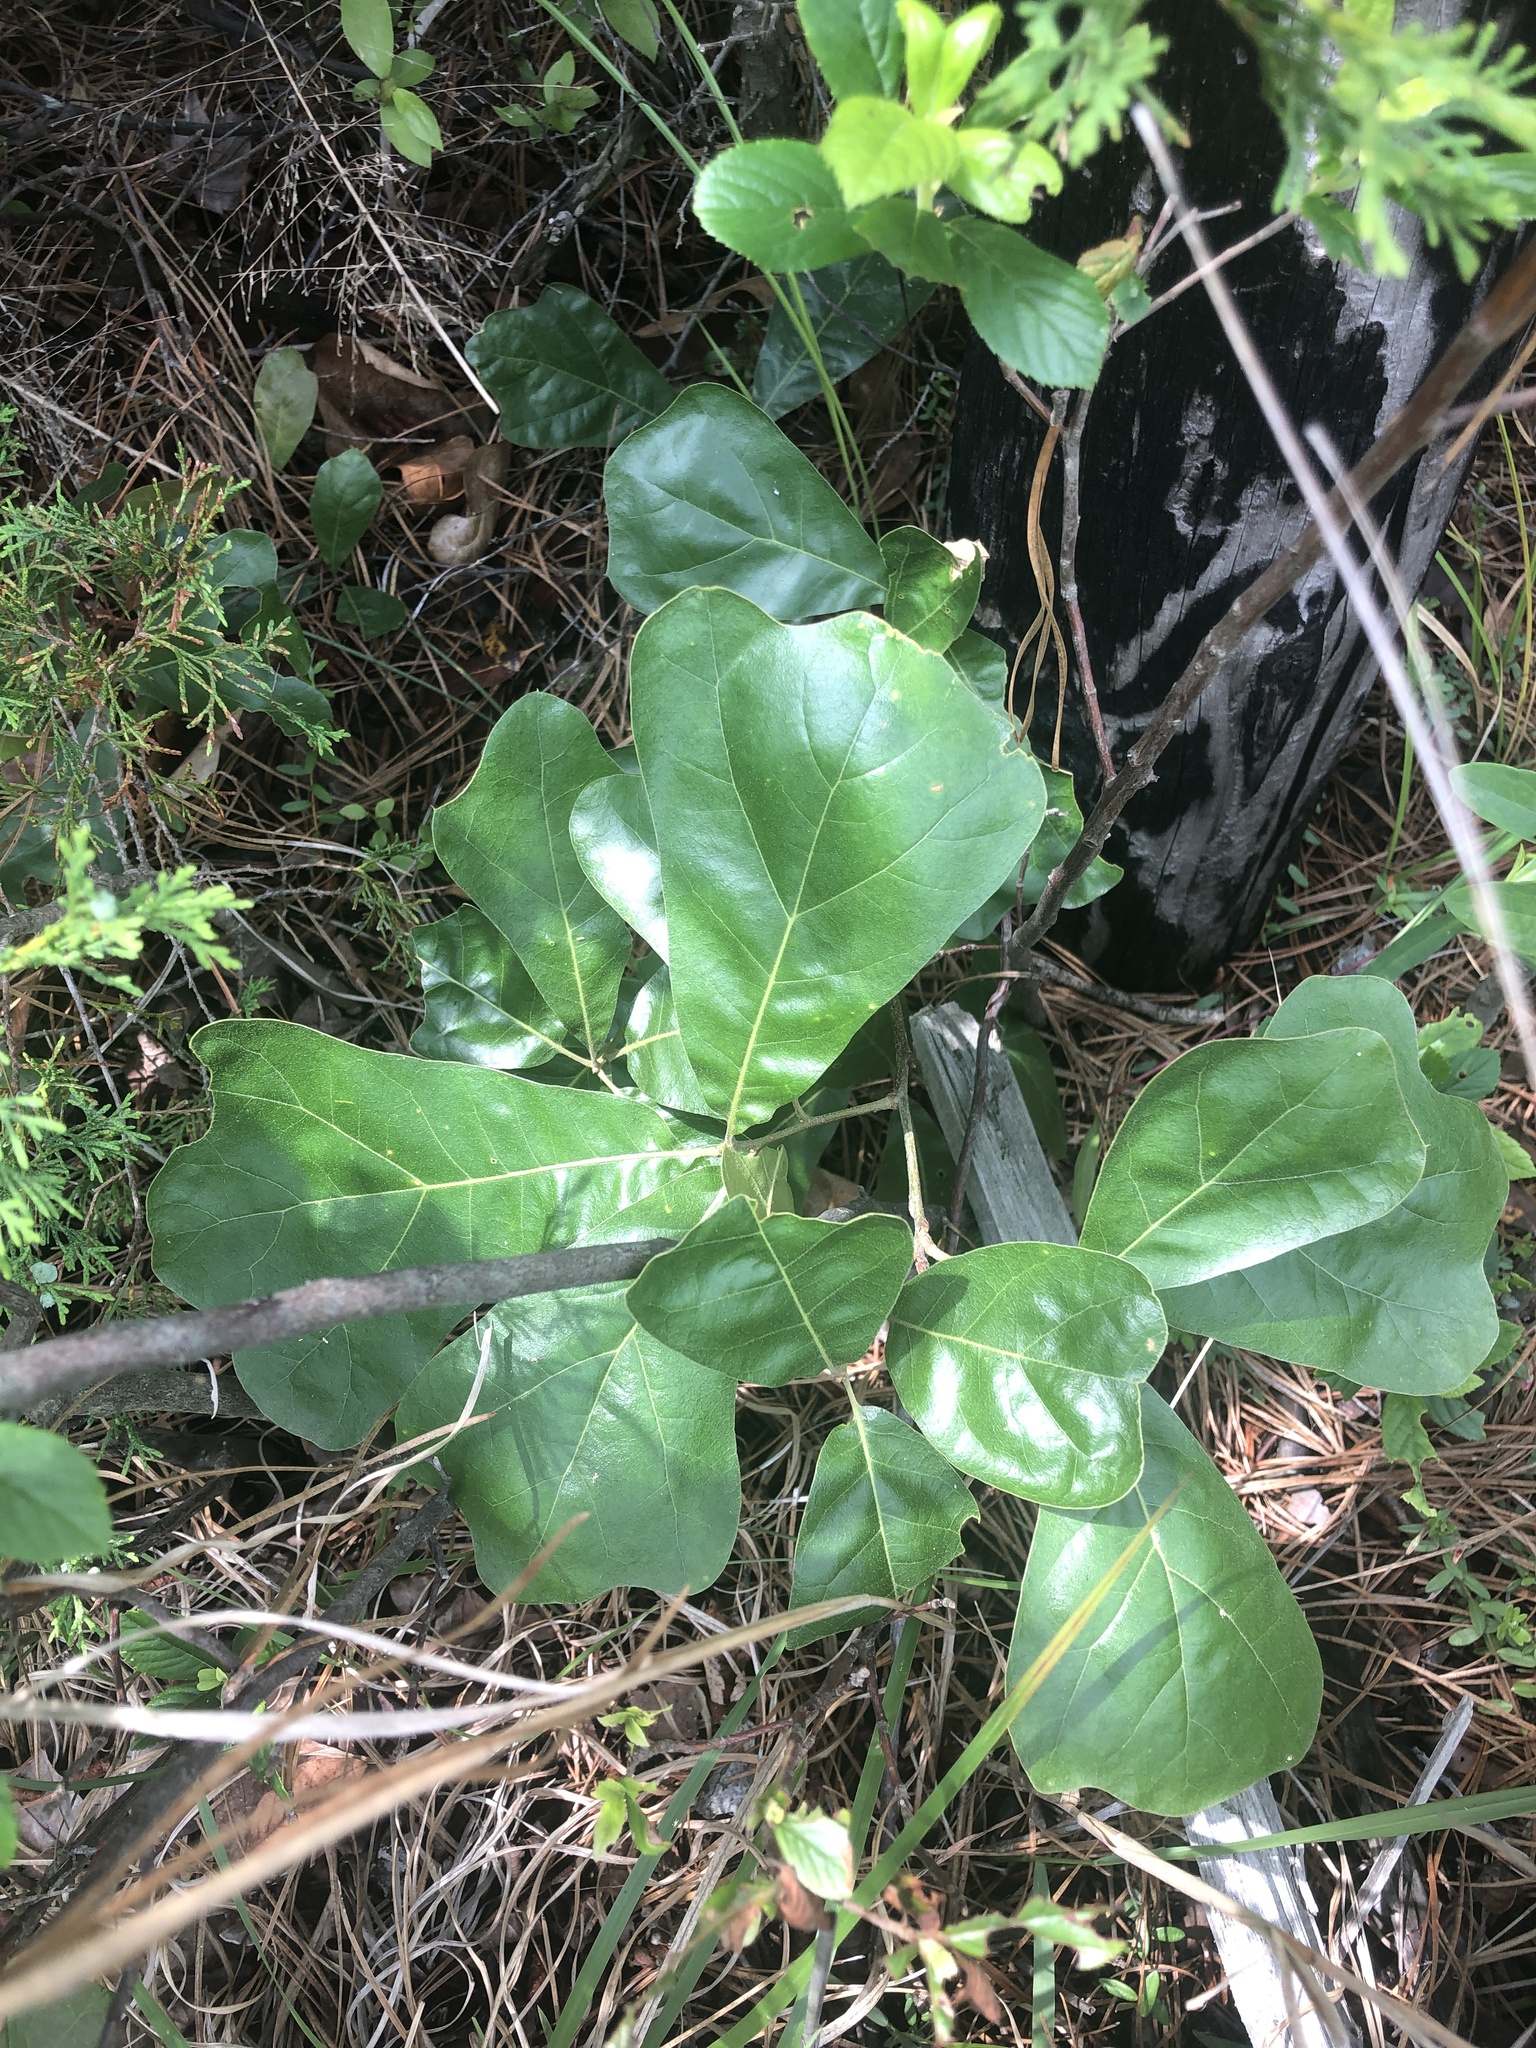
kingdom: Plantae
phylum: Tracheophyta
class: Magnoliopsida
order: Fagales
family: Fagaceae
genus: Quercus
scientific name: Quercus marilandica
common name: Blackjack oak
